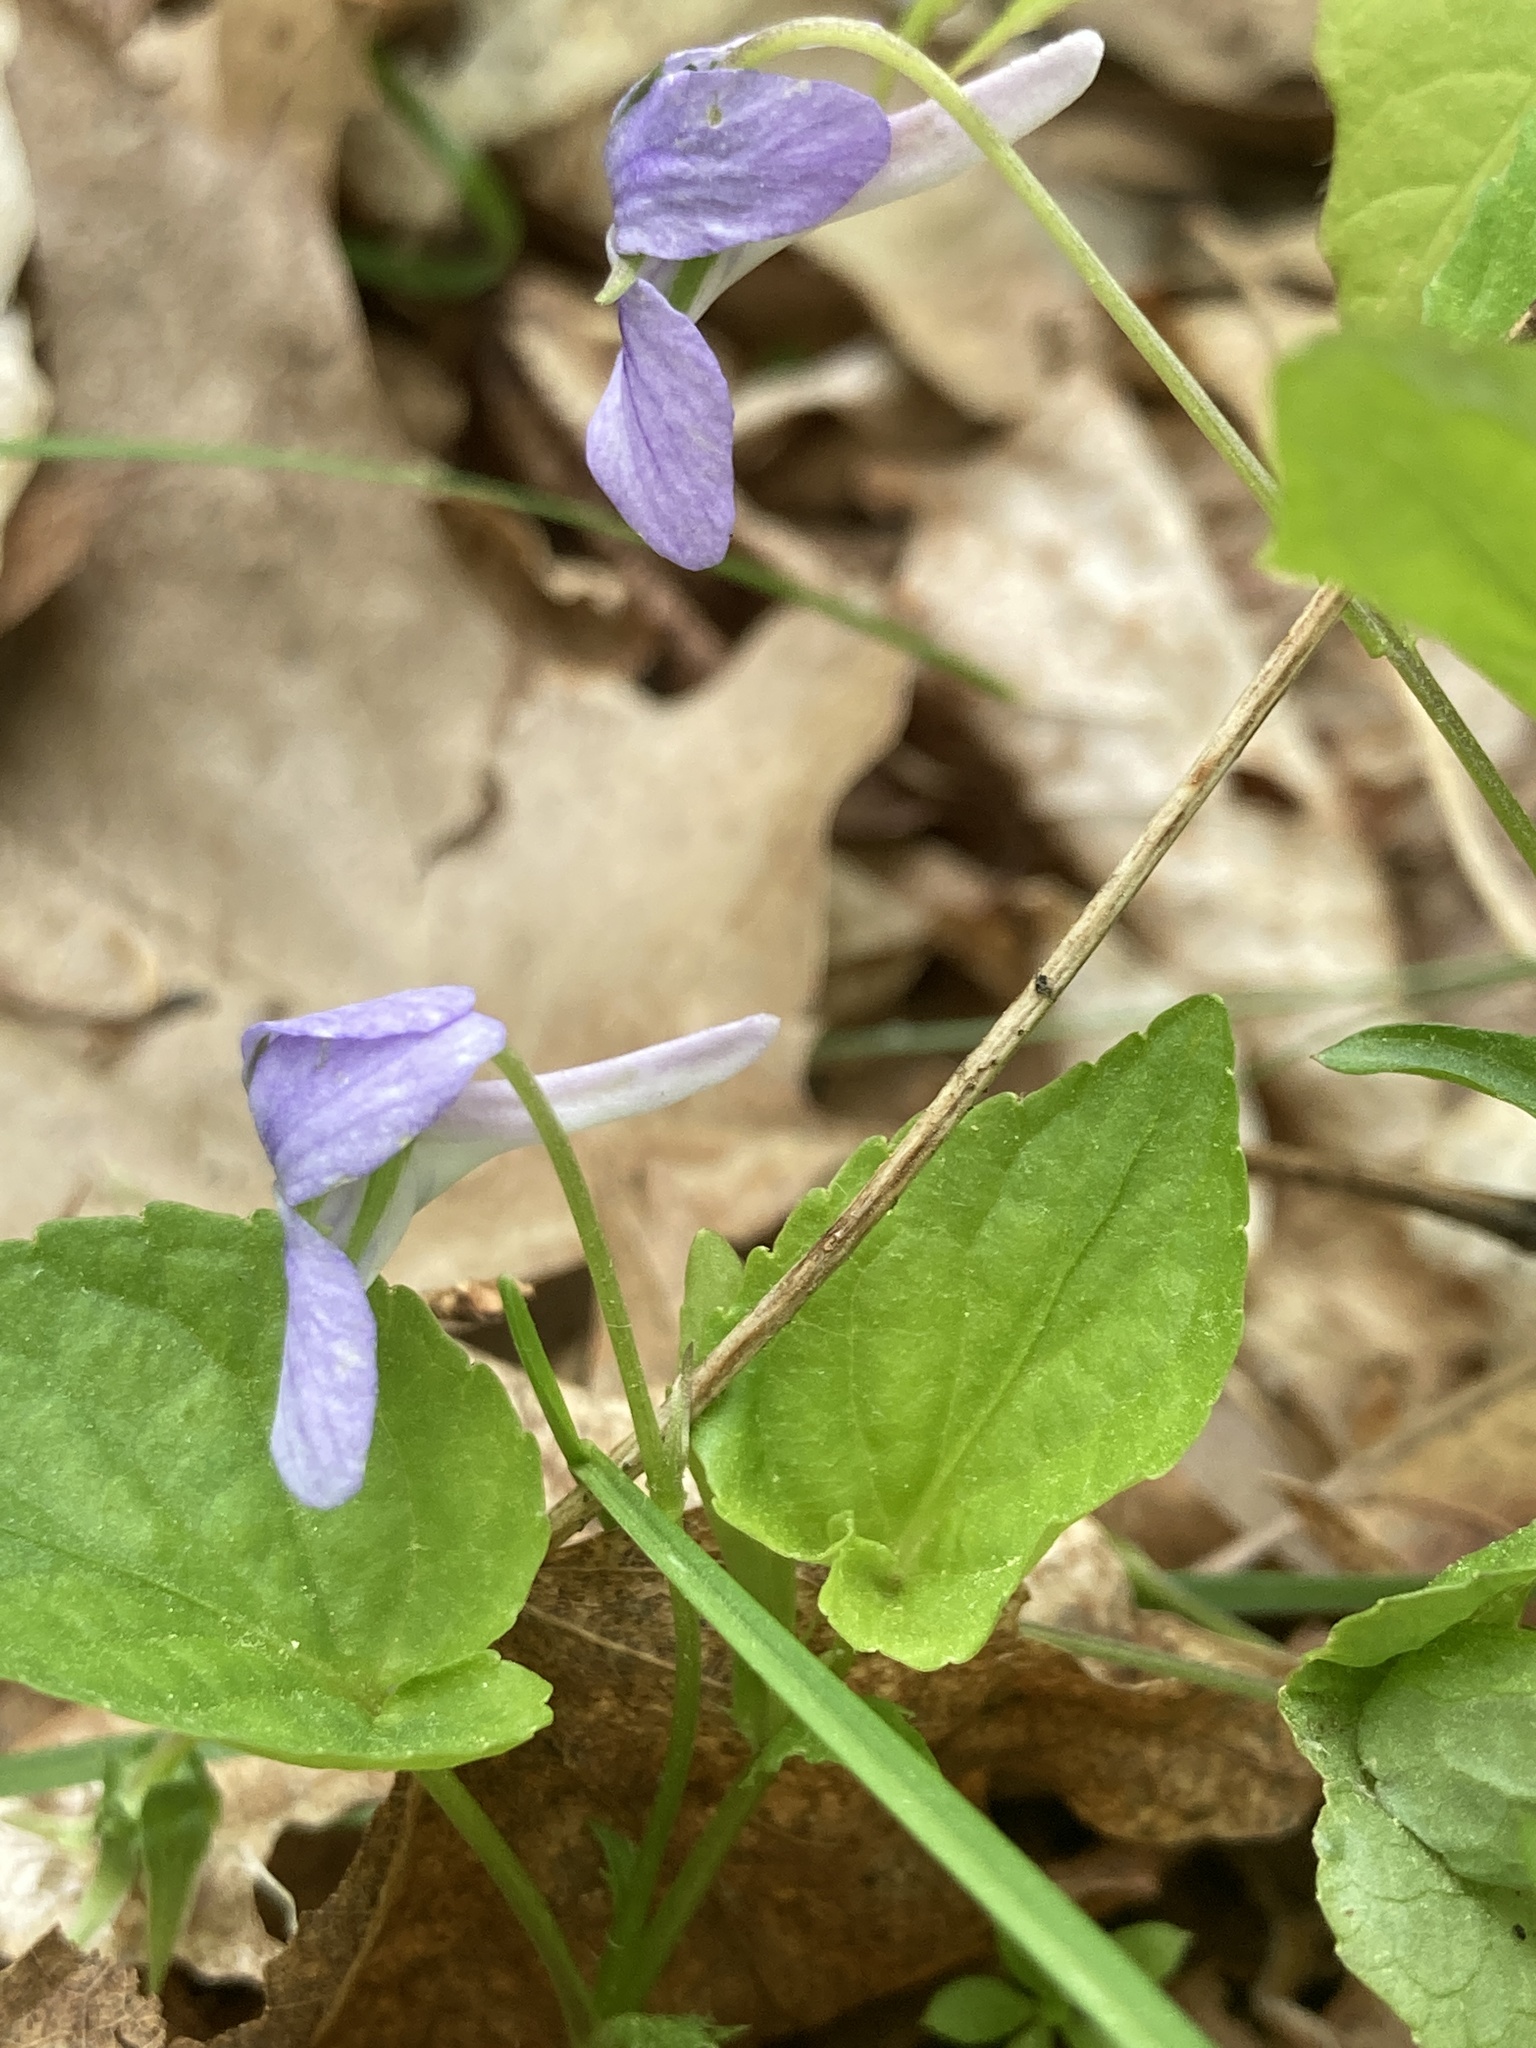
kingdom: Plantae
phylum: Tracheophyta
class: Magnoliopsida
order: Malpighiales
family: Violaceae
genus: Viola
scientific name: Viola rostrata
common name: Long-spur violet
